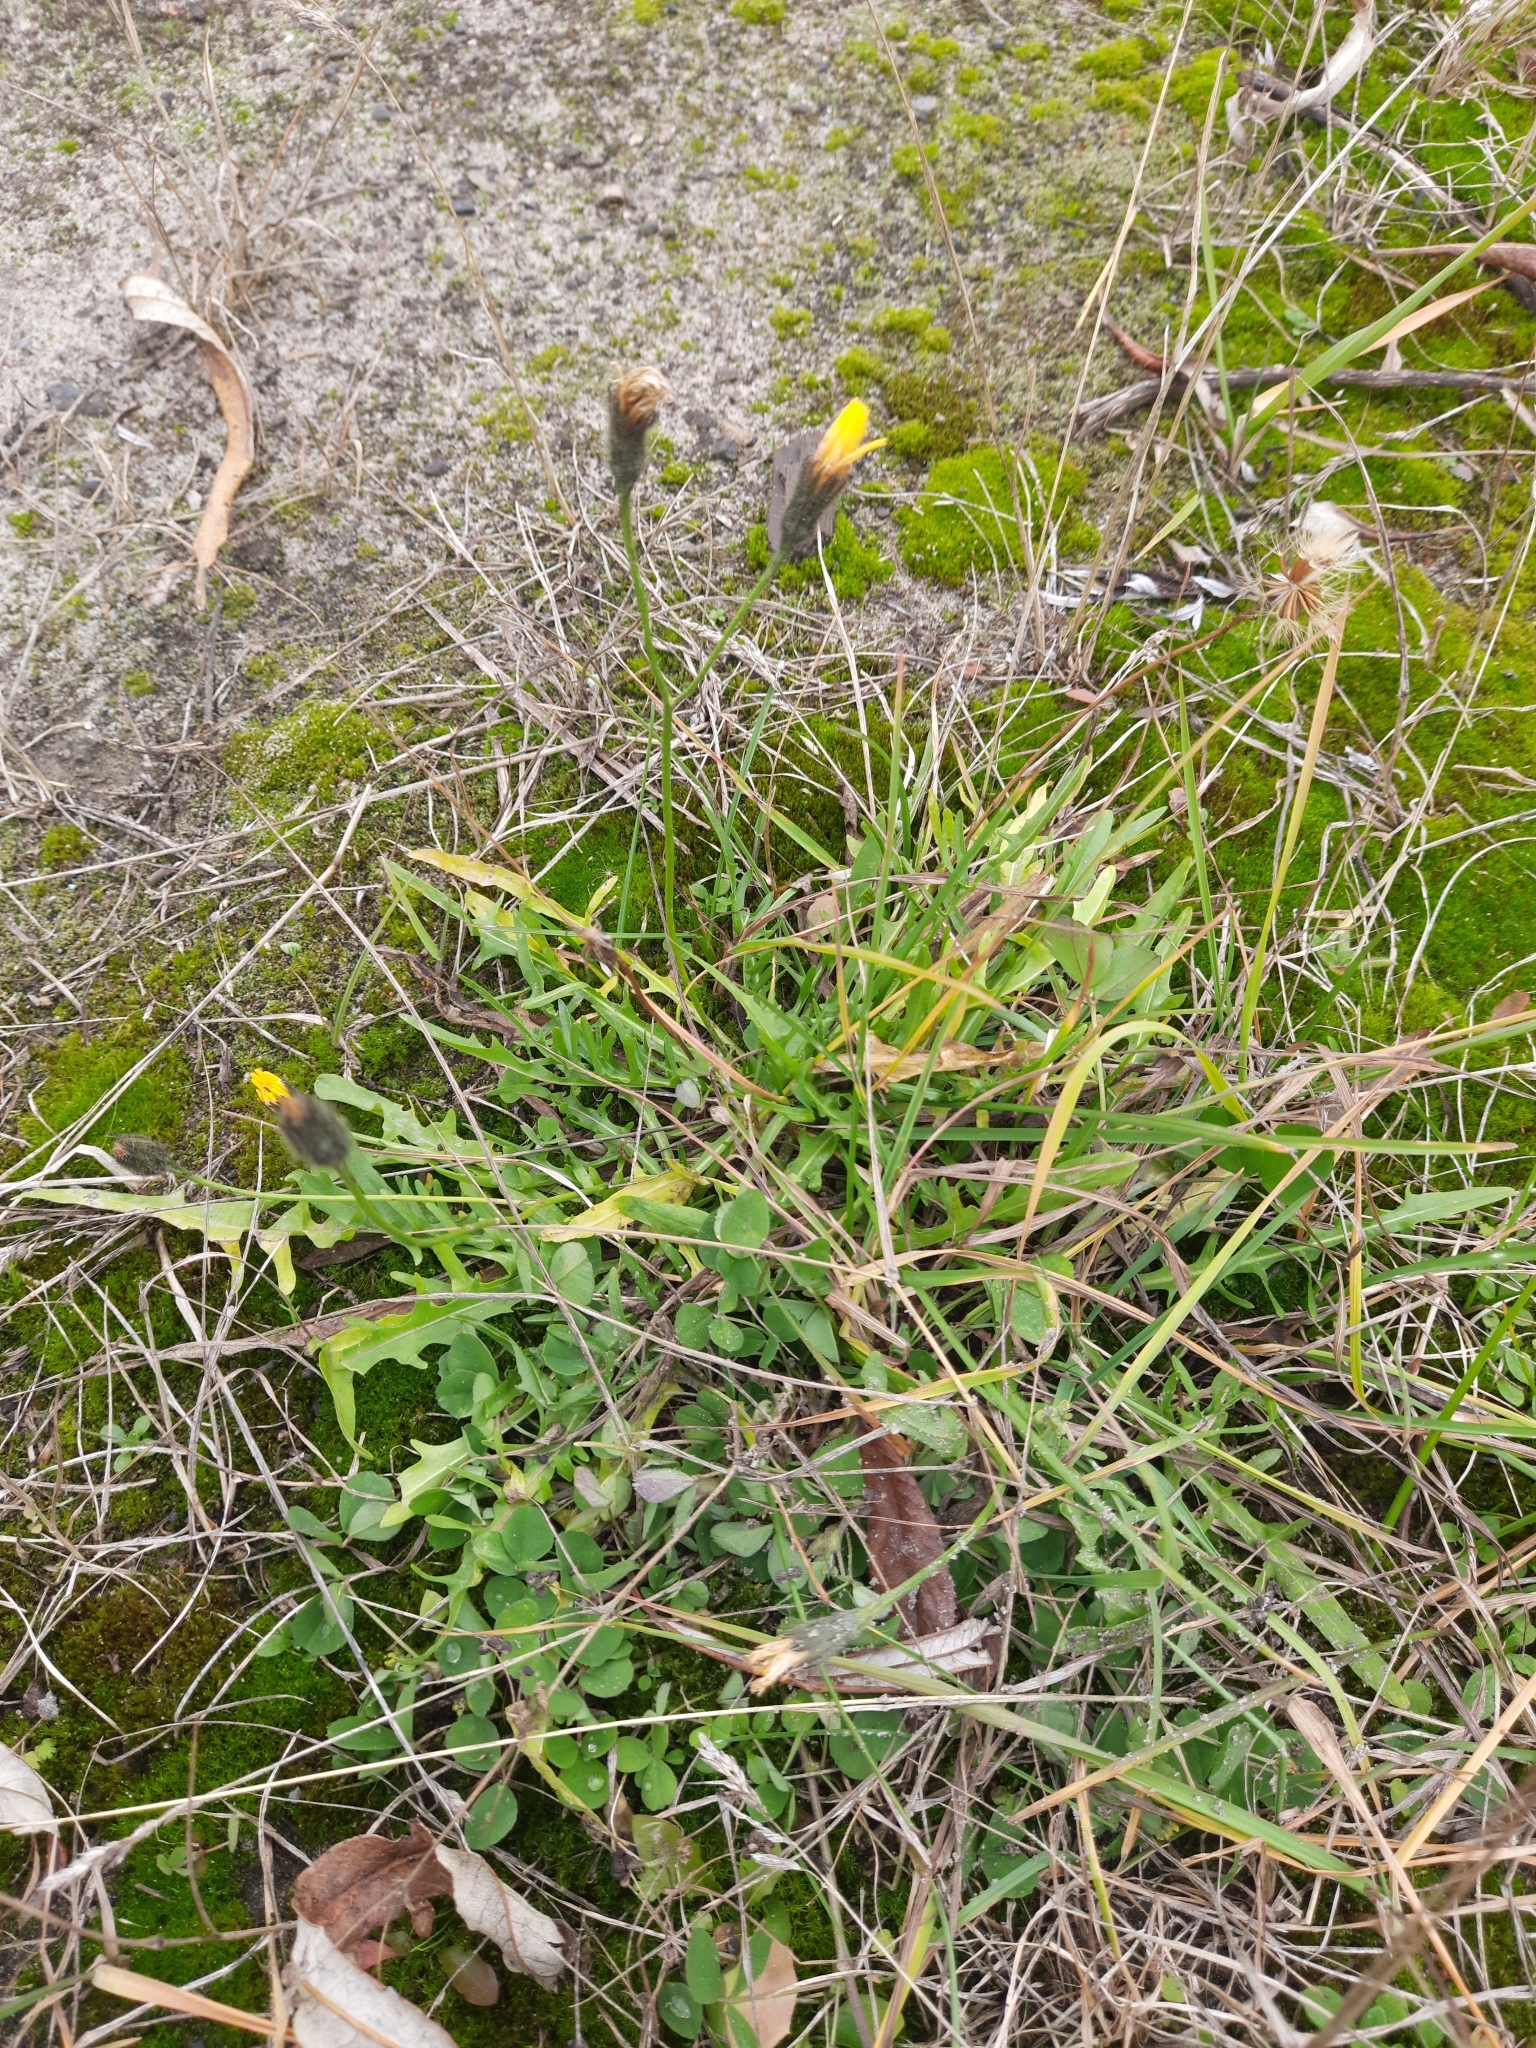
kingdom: Plantae
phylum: Tracheophyta
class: Magnoliopsida
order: Asterales
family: Asteraceae
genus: Scorzoneroides
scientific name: Scorzoneroides autumnalis
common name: Autumn hawkbit
